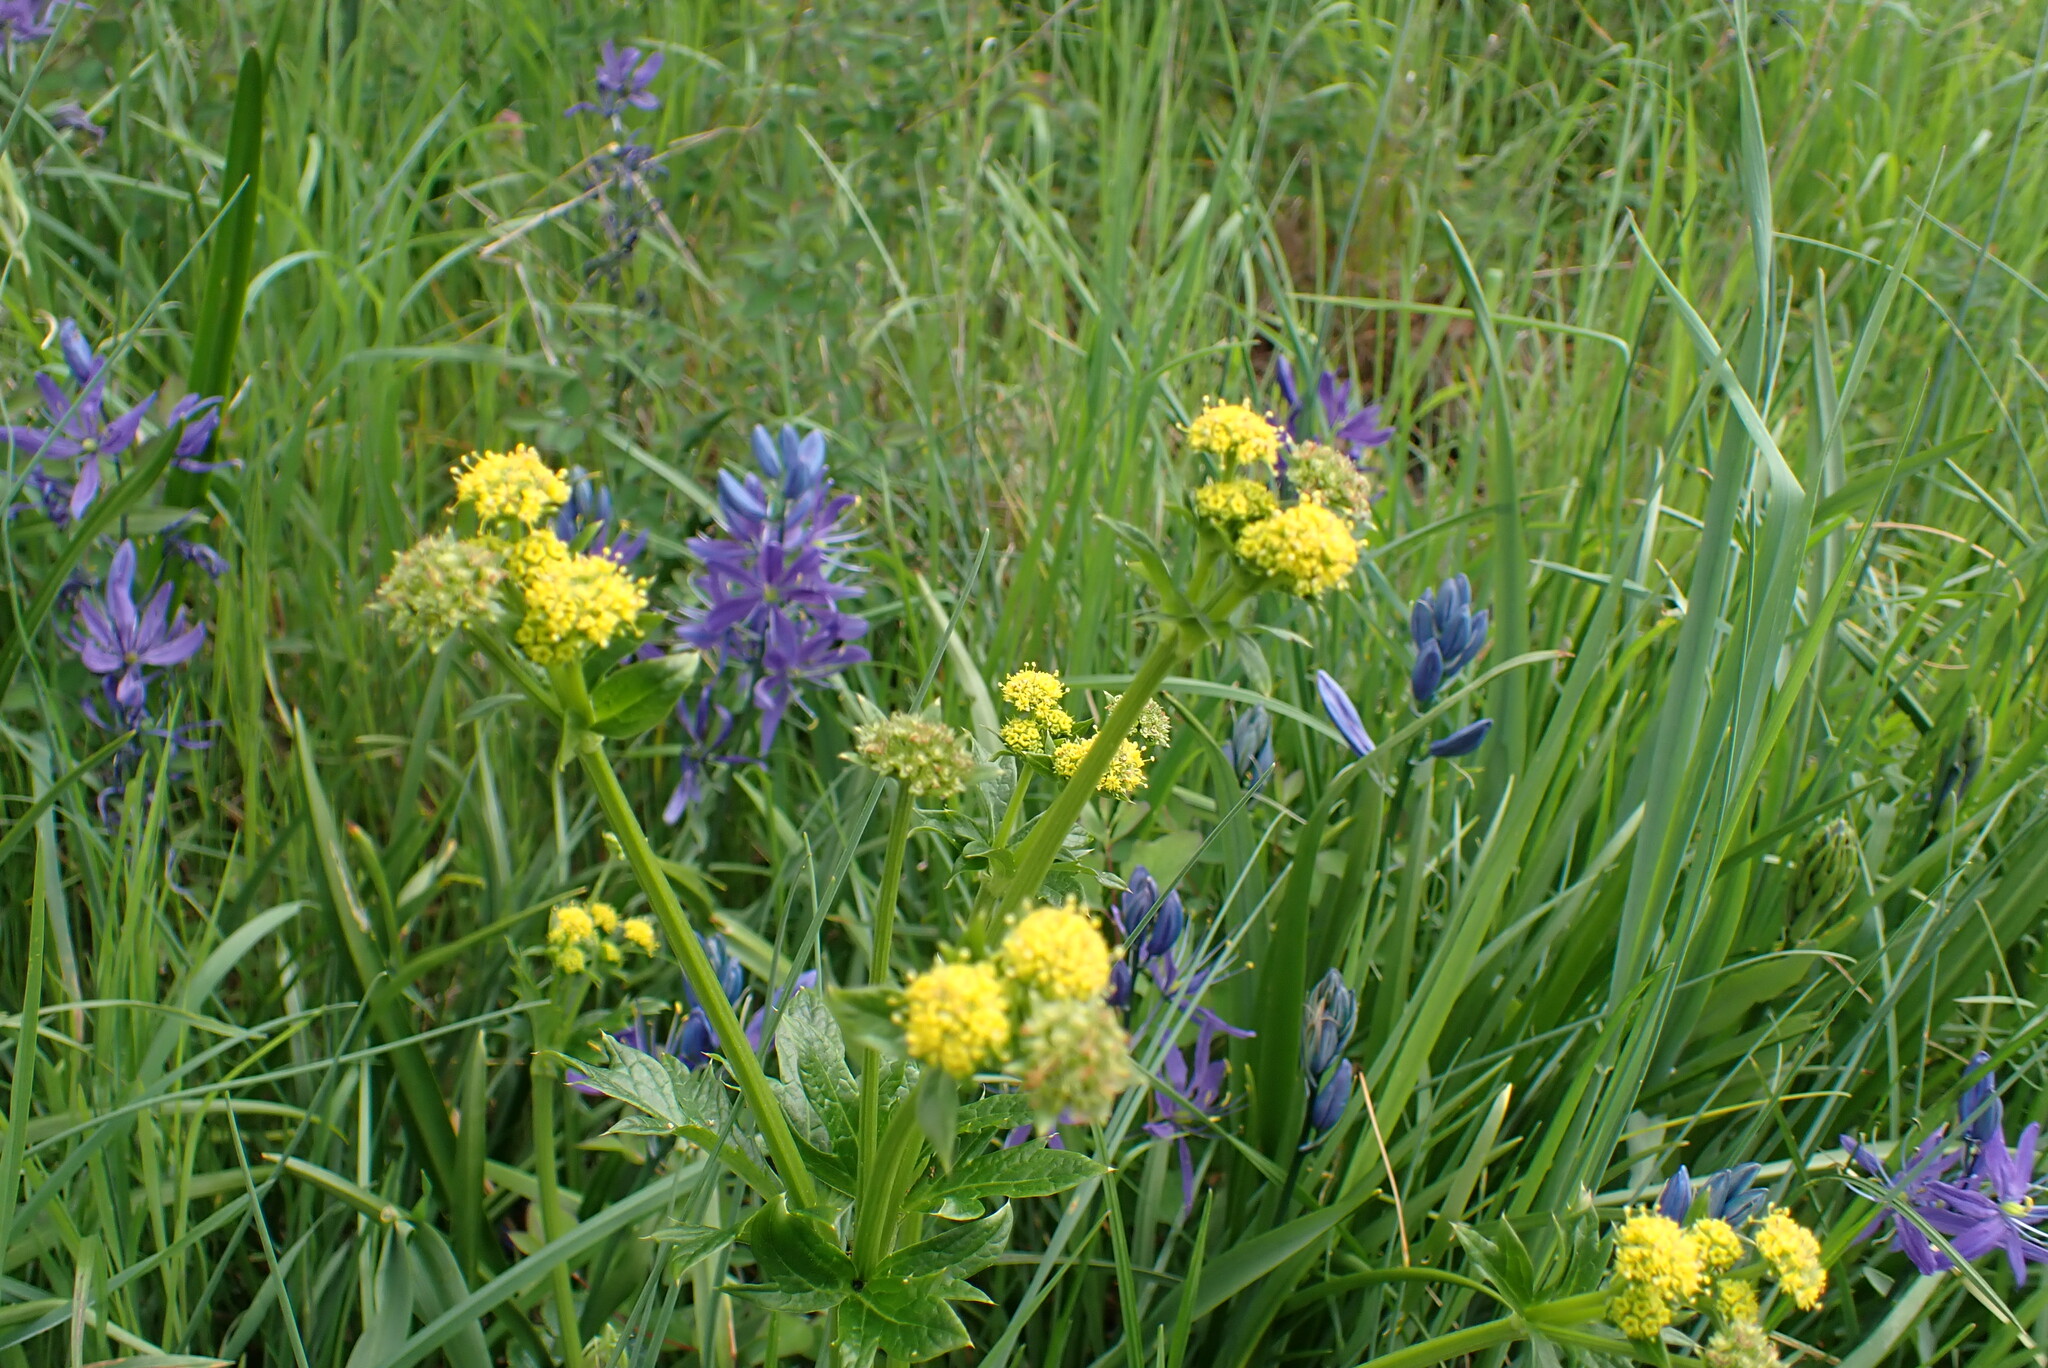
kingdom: Plantae
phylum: Tracheophyta
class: Magnoliopsida
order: Apiales
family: Apiaceae
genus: Sanicula
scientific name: Sanicula crassicaulis
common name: Western snakeroot
